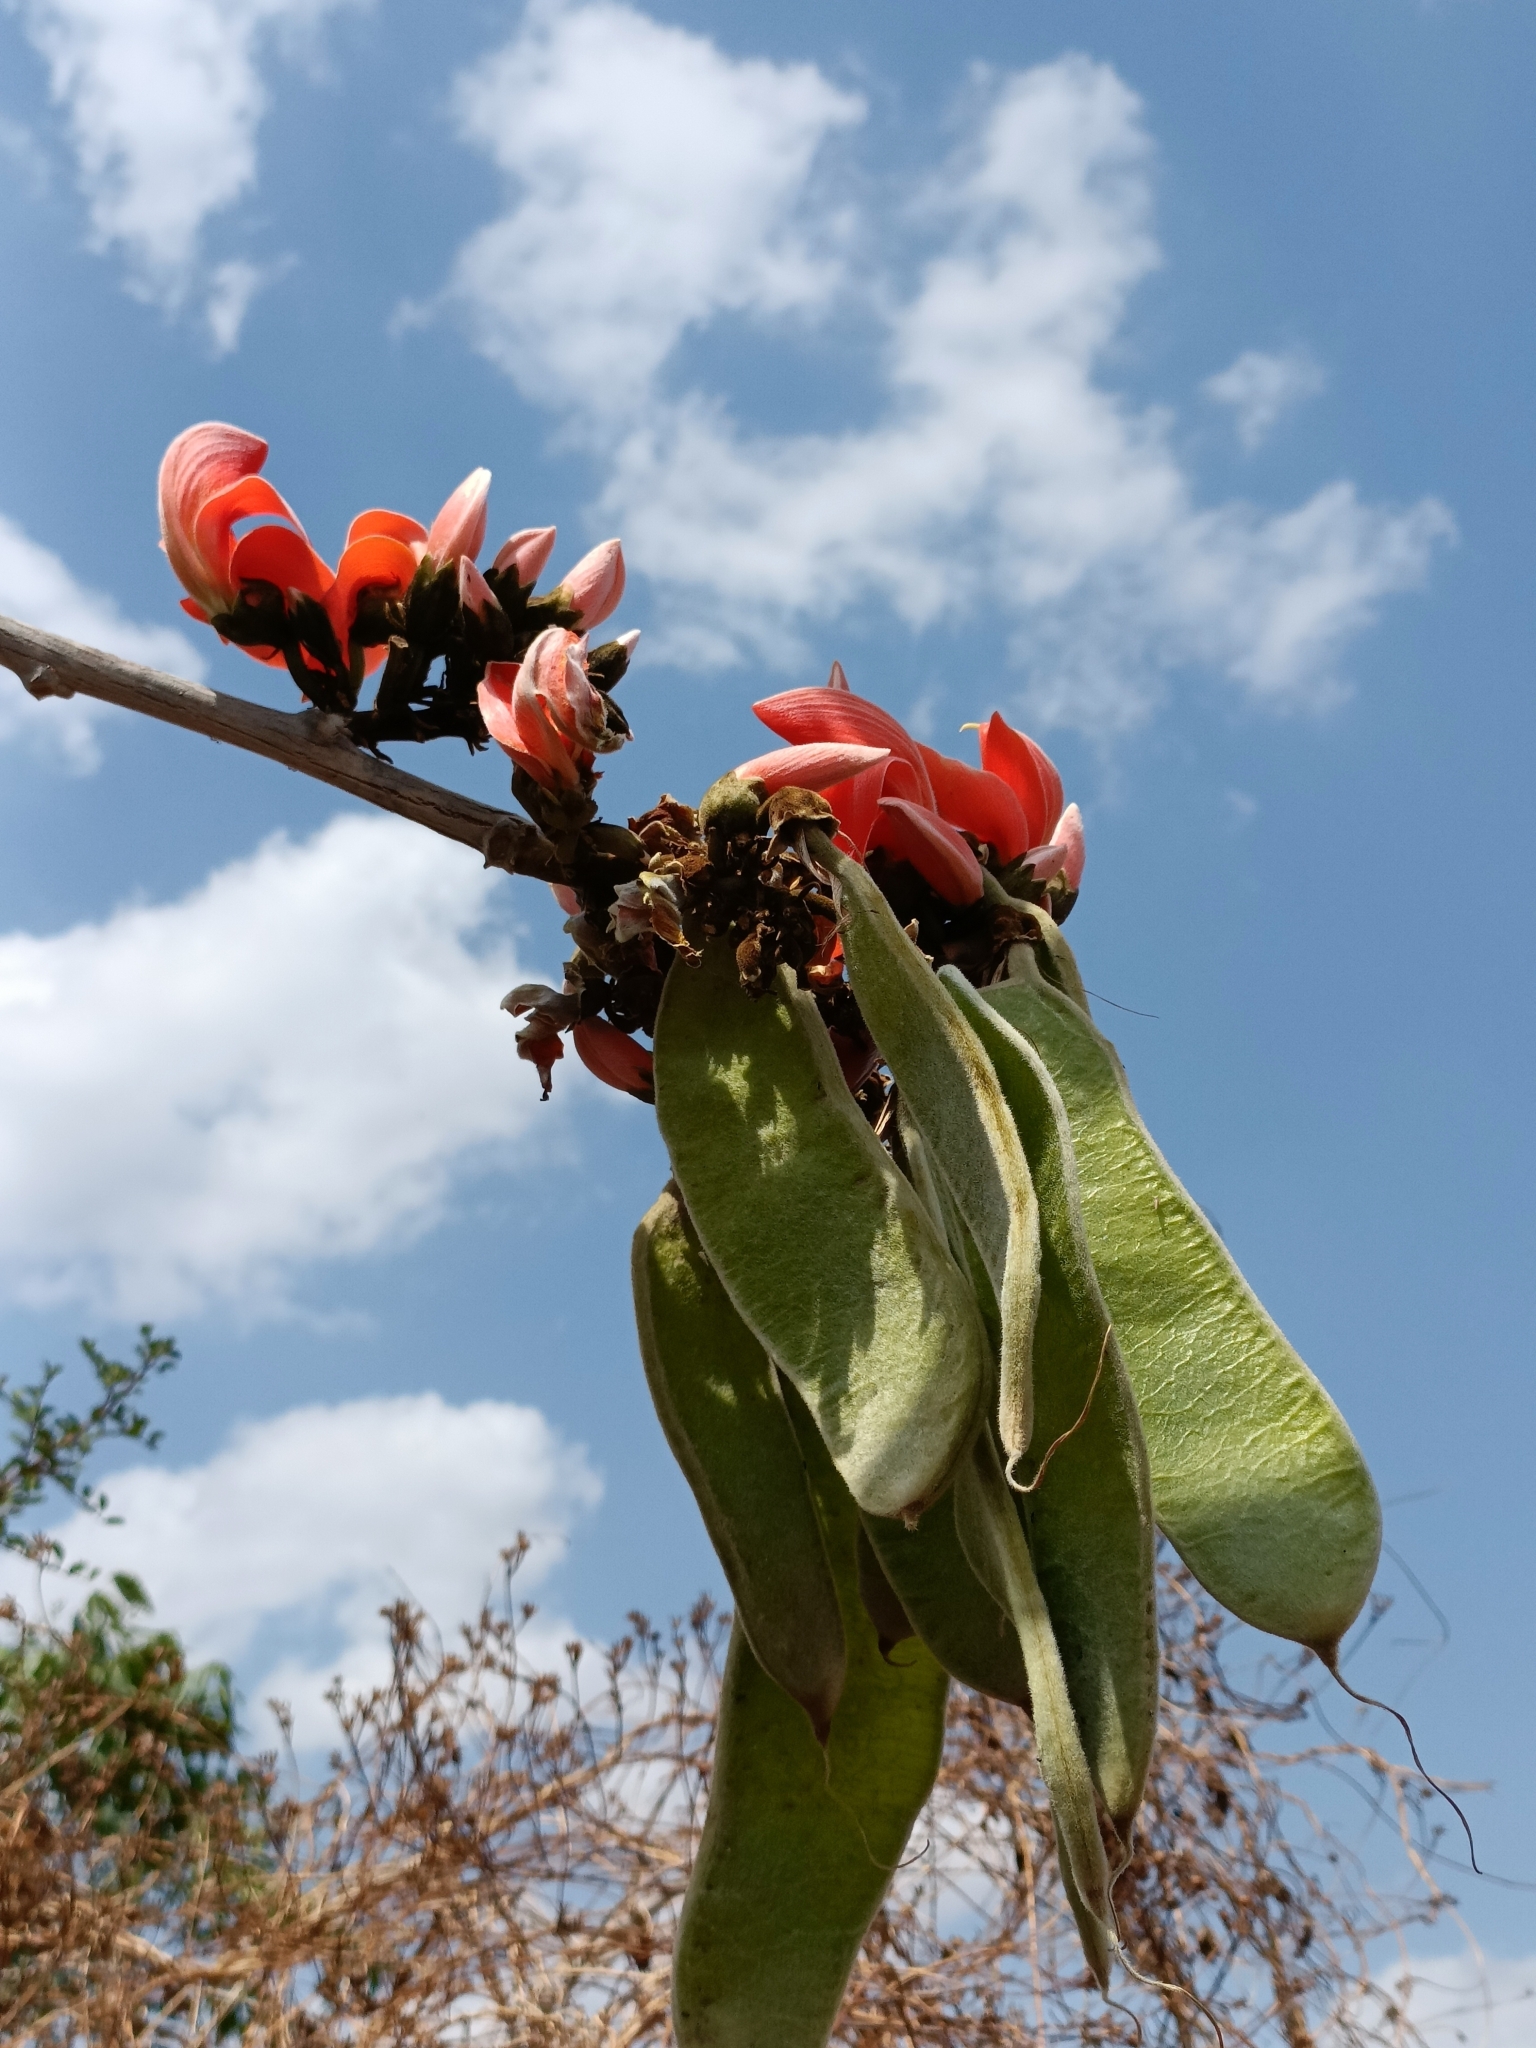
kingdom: Plantae
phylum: Tracheophyta
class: Magnoliopsida
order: Fabales
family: Fabaceae
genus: Butea
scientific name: Butea monosperma
